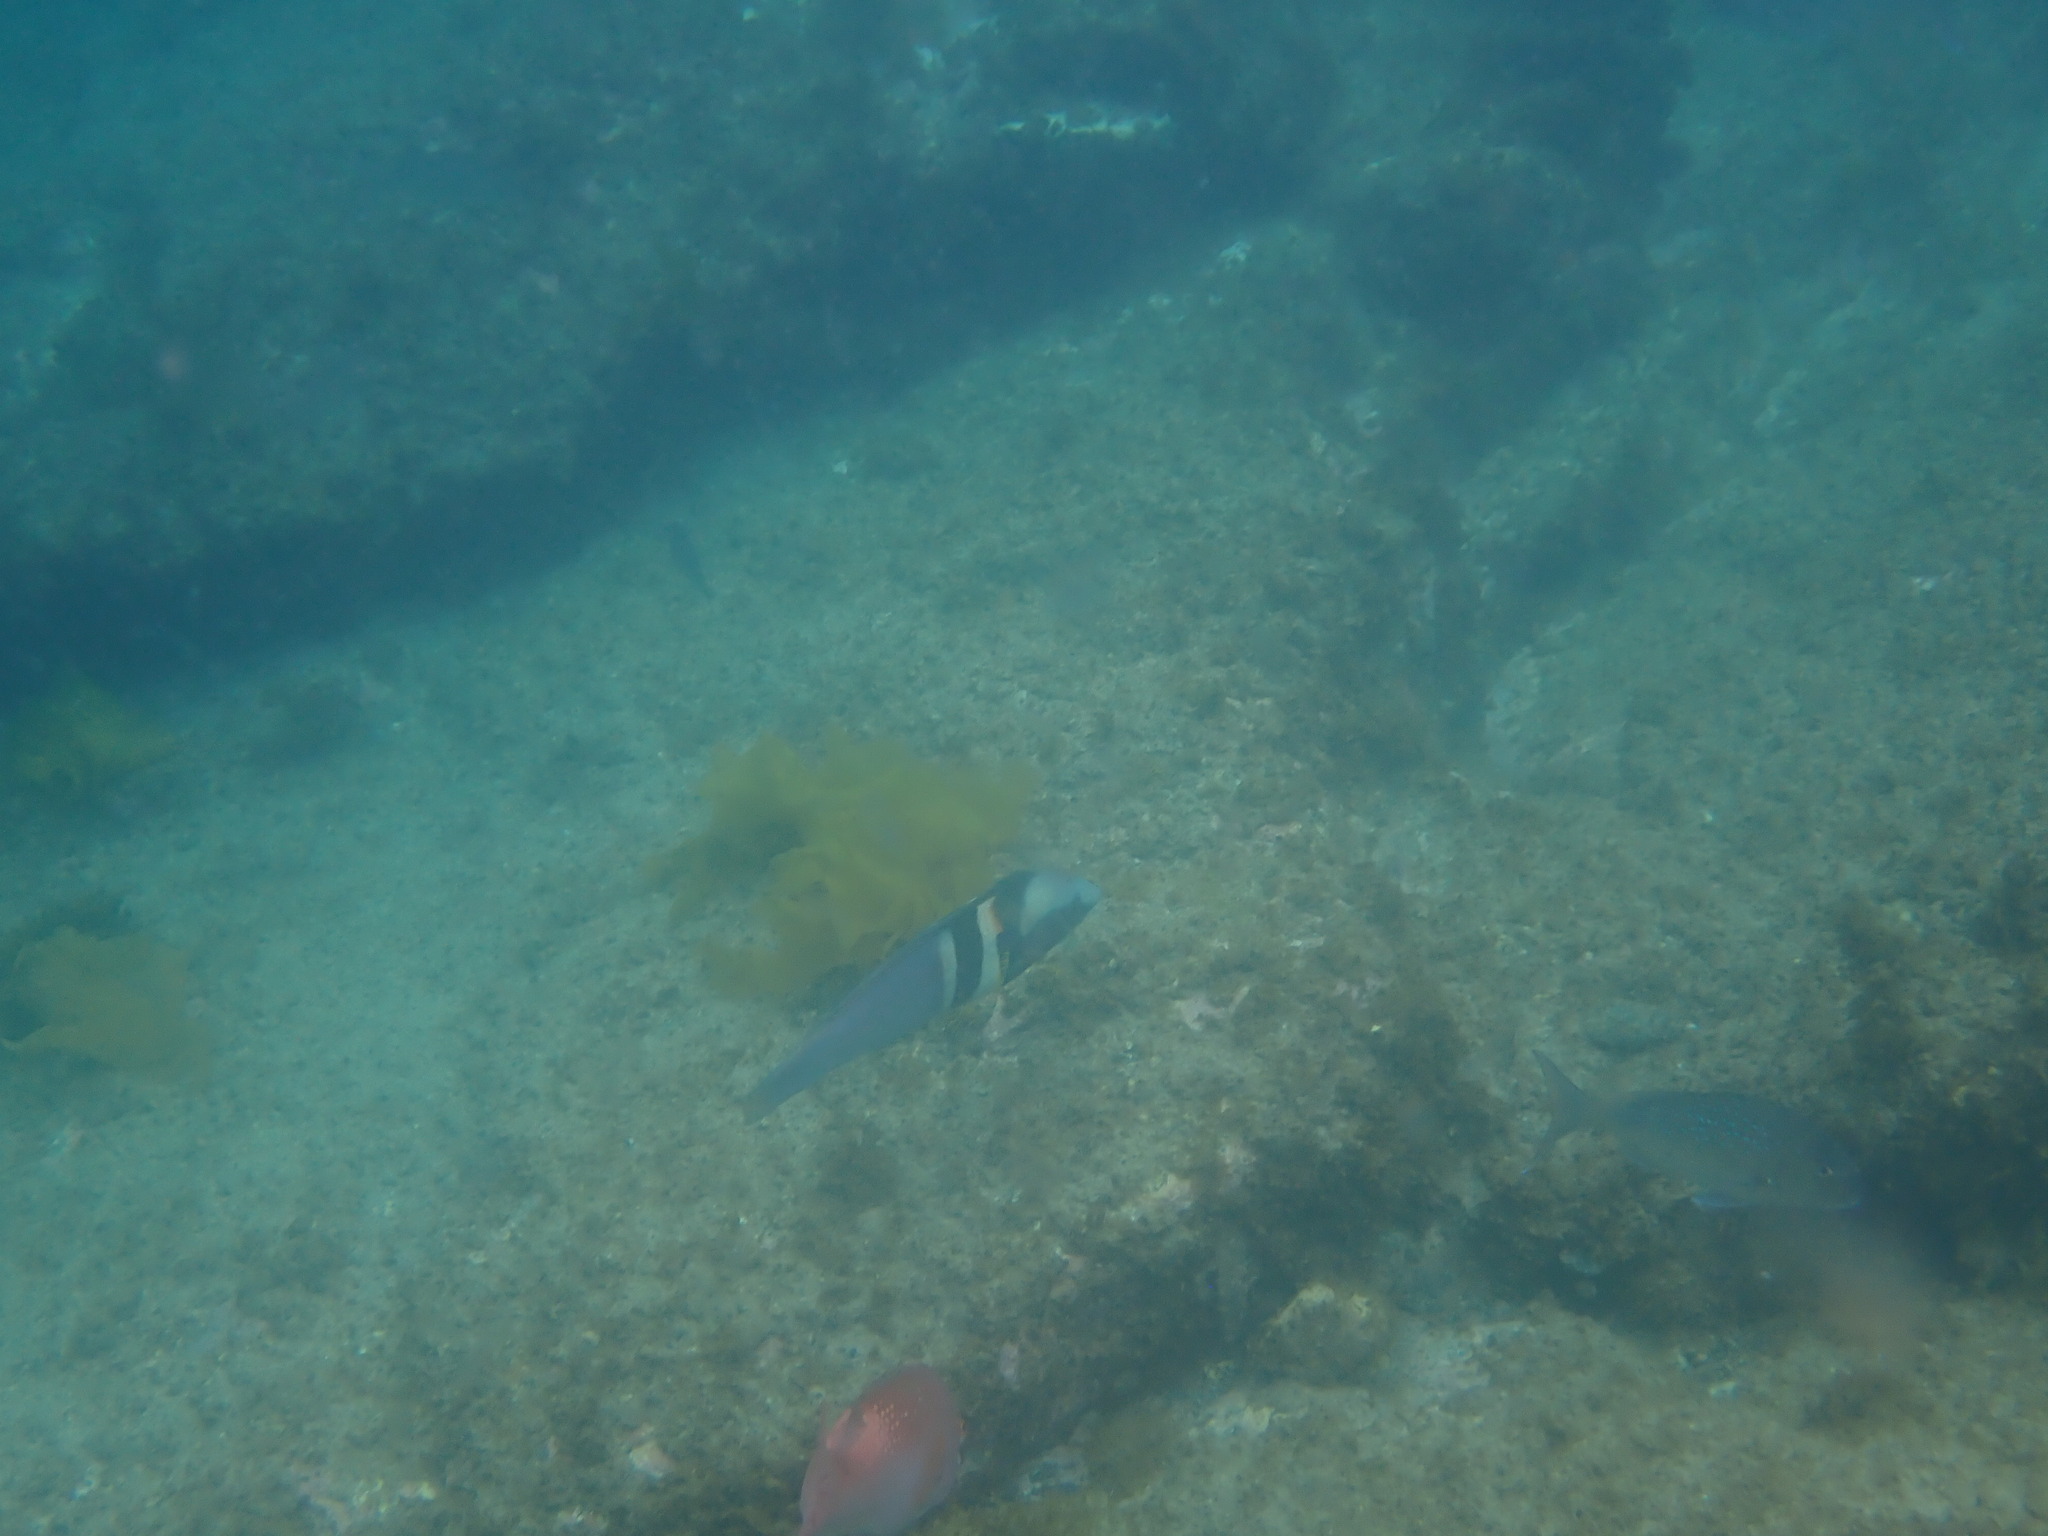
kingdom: Animalia
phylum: Chordata
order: Perciformes
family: Labridae
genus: Coris
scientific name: Coris sandeyeri
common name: Sandager's wrasse
